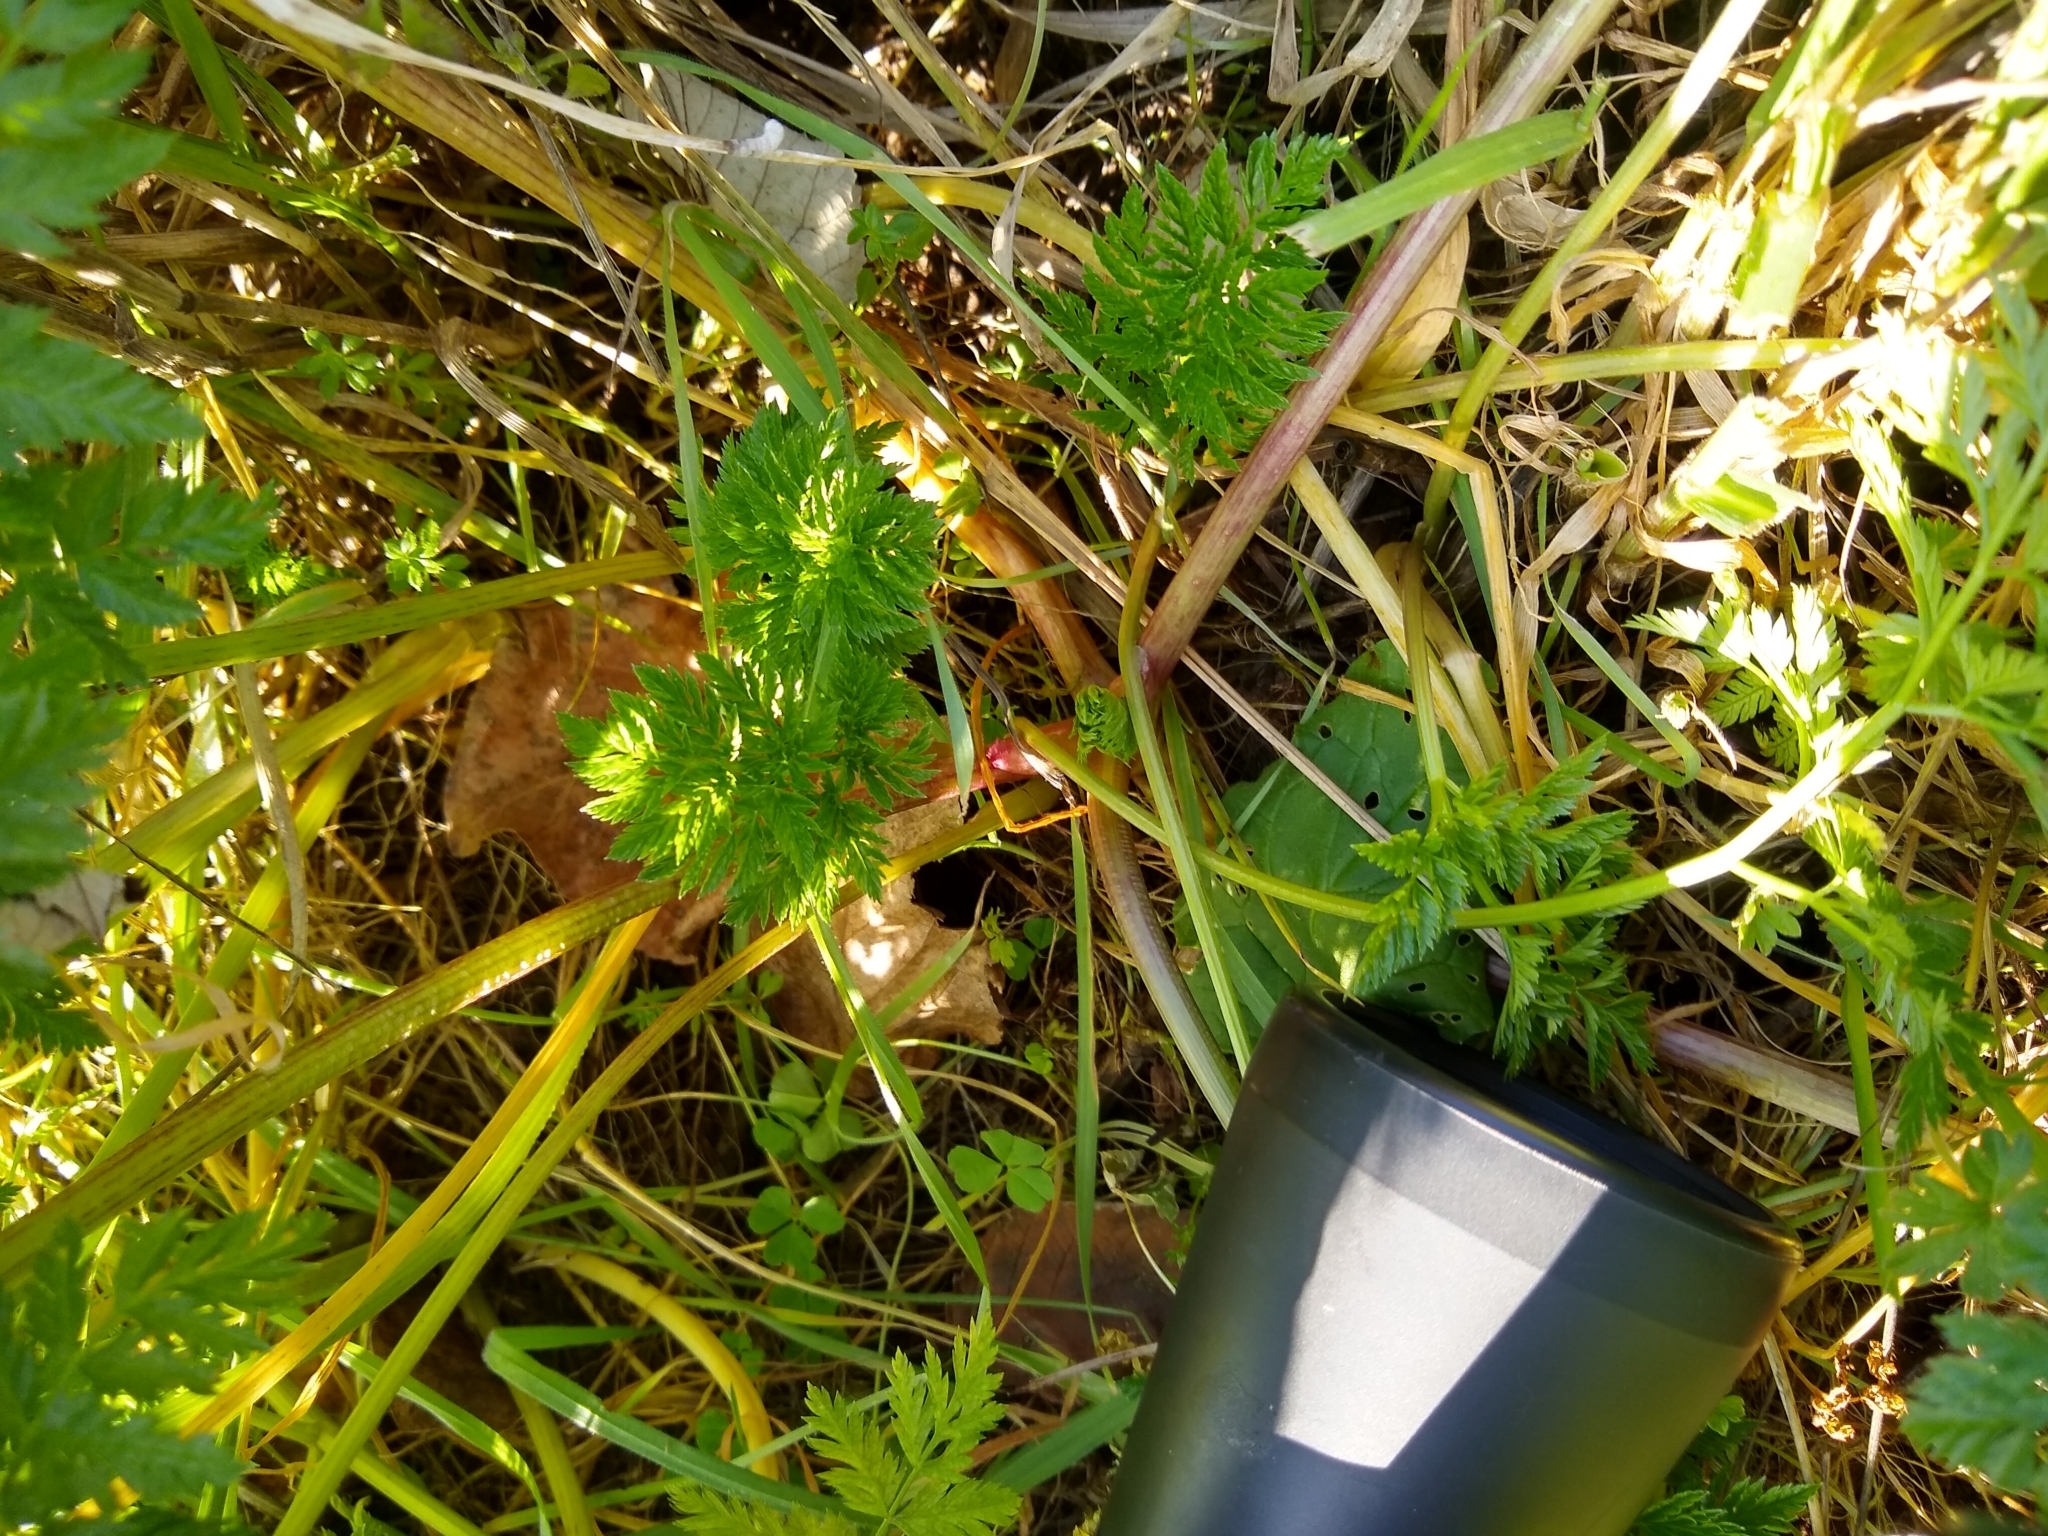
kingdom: Plantae
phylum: Tracheophyta
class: Magnoliopsida
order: Apiales
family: Apiaceae
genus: Conium
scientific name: Conium maculatum
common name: Hemlock
